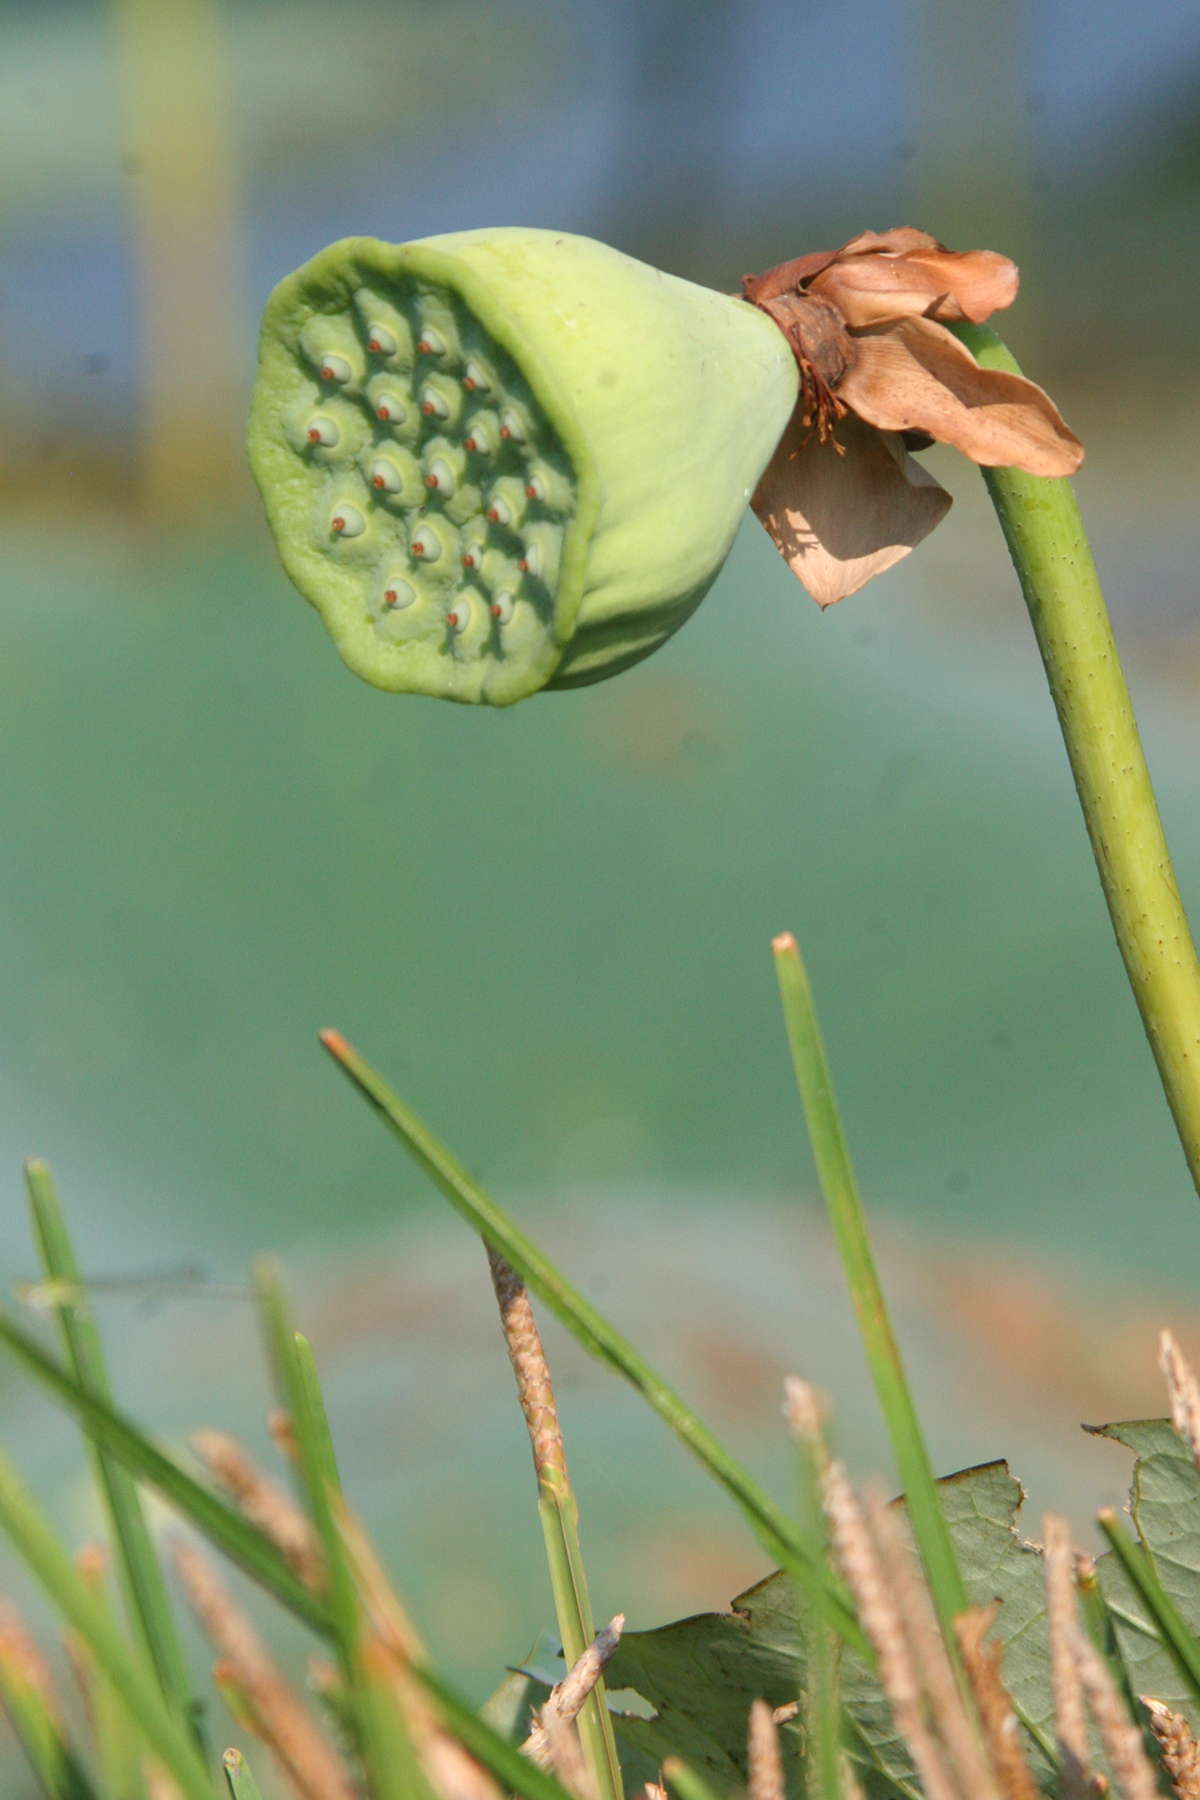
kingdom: Plantae
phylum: Tracheophyta
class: Magnoliopsida
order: Proteales
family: Nelumbonaceae
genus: Nelumbo
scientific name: Nelumbo lutea
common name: American lotus
